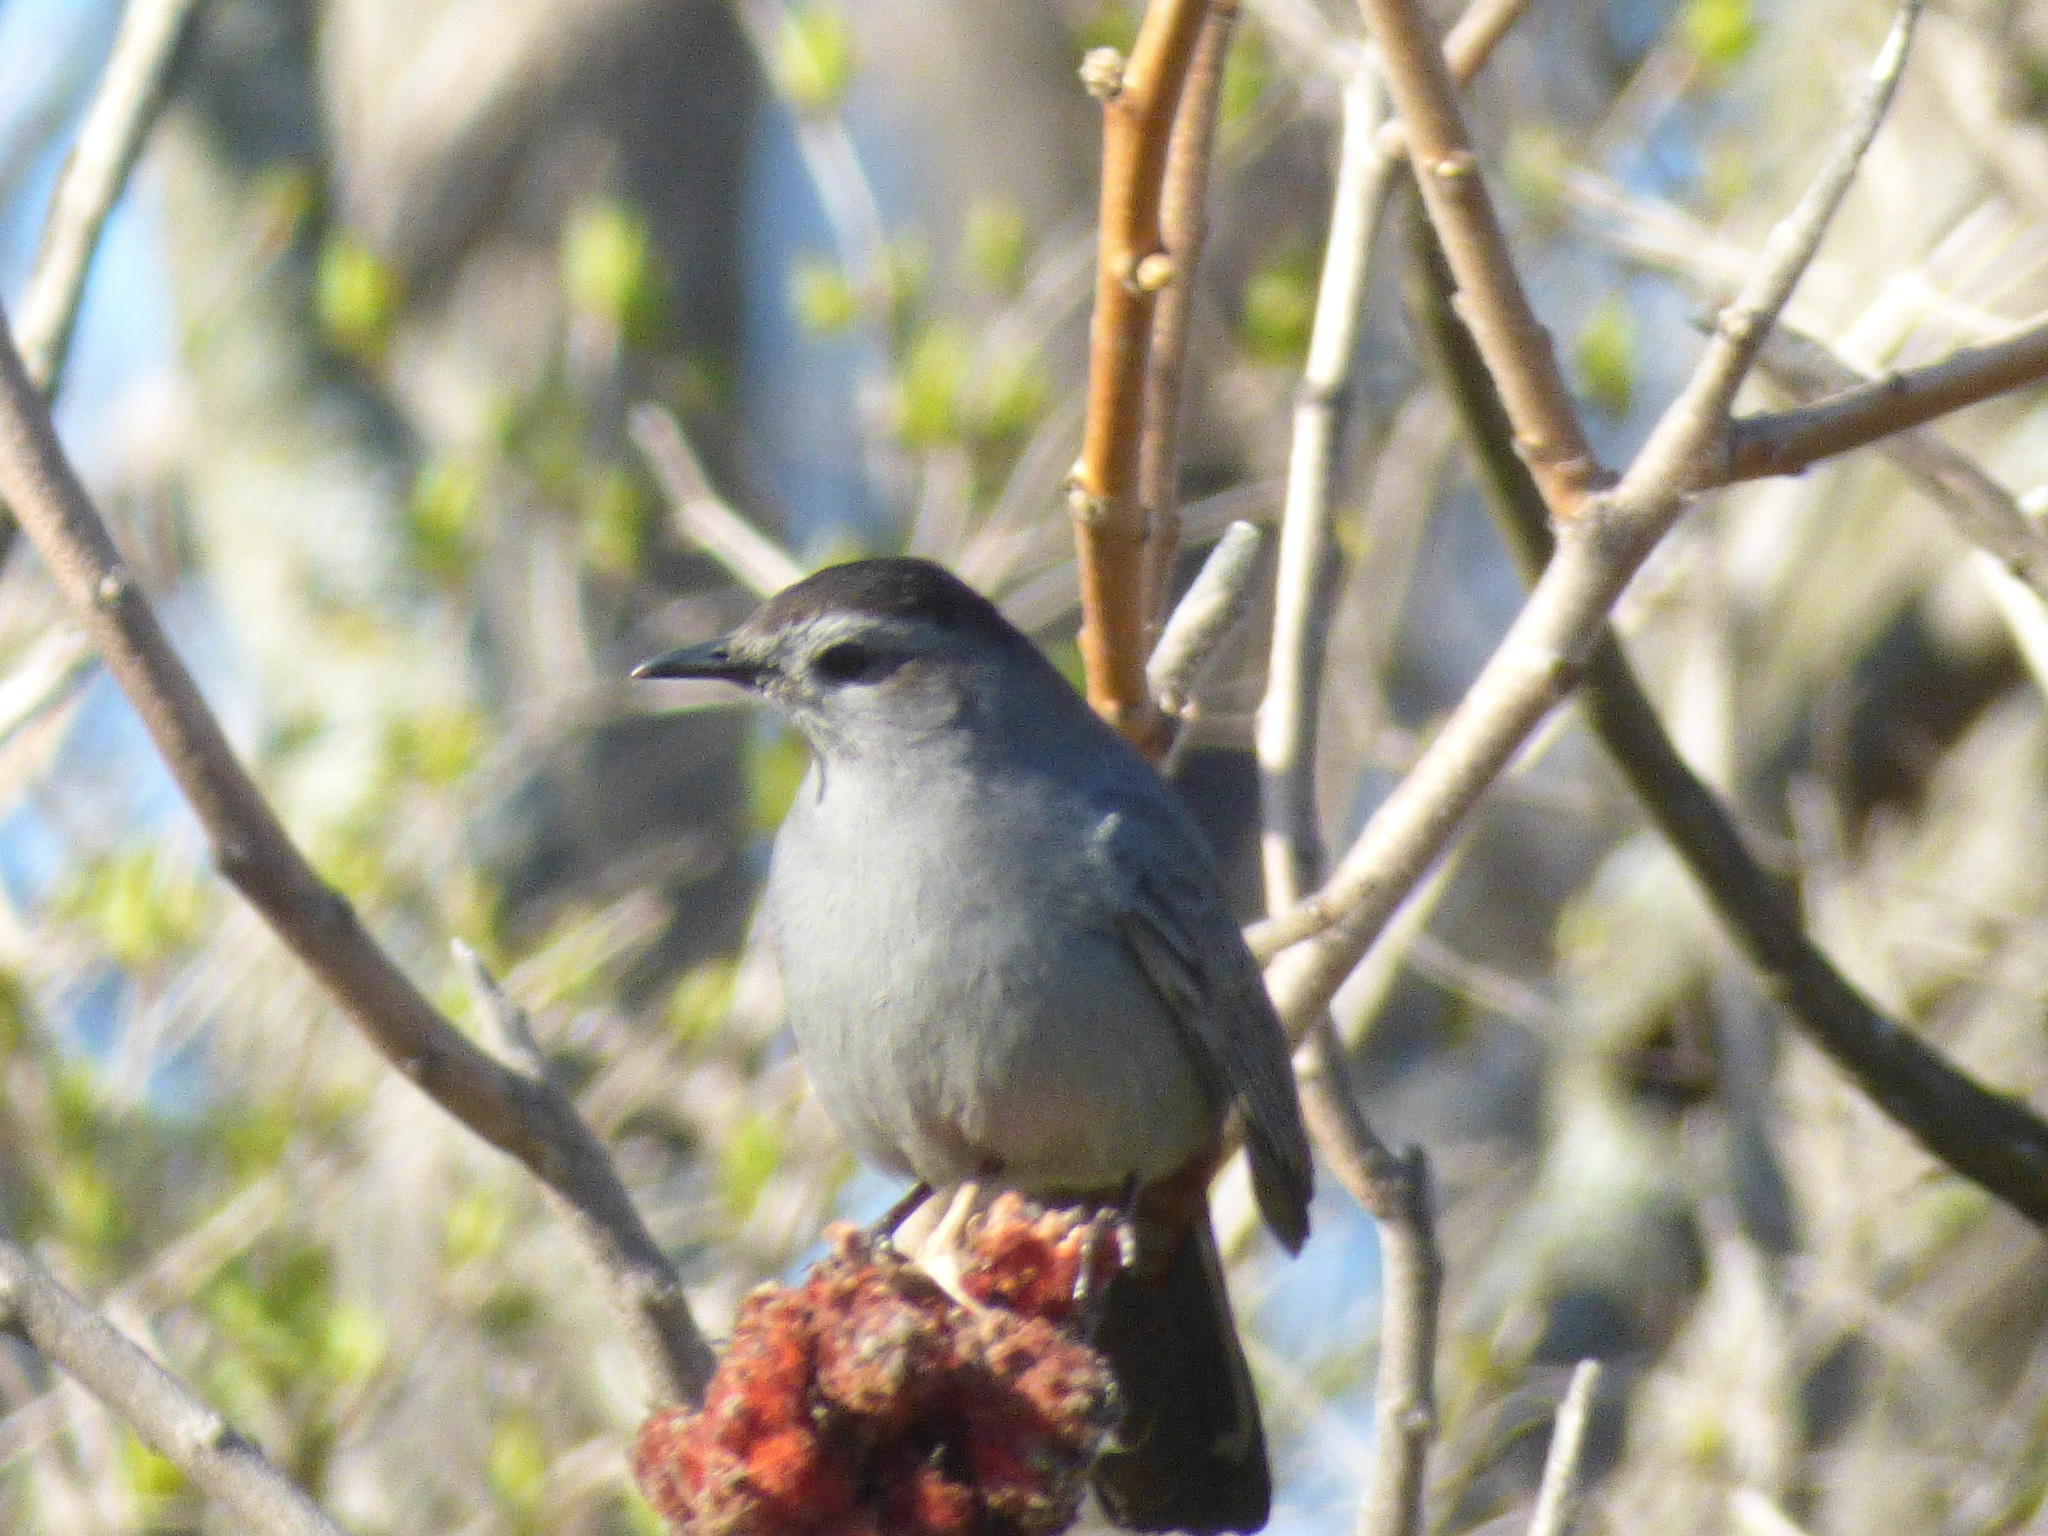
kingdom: Animalia
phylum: Chordata
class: Aves
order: Passeriformes
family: Mimidae
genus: Dumetella
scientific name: Dumetella carolinensis
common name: Gray catbird
